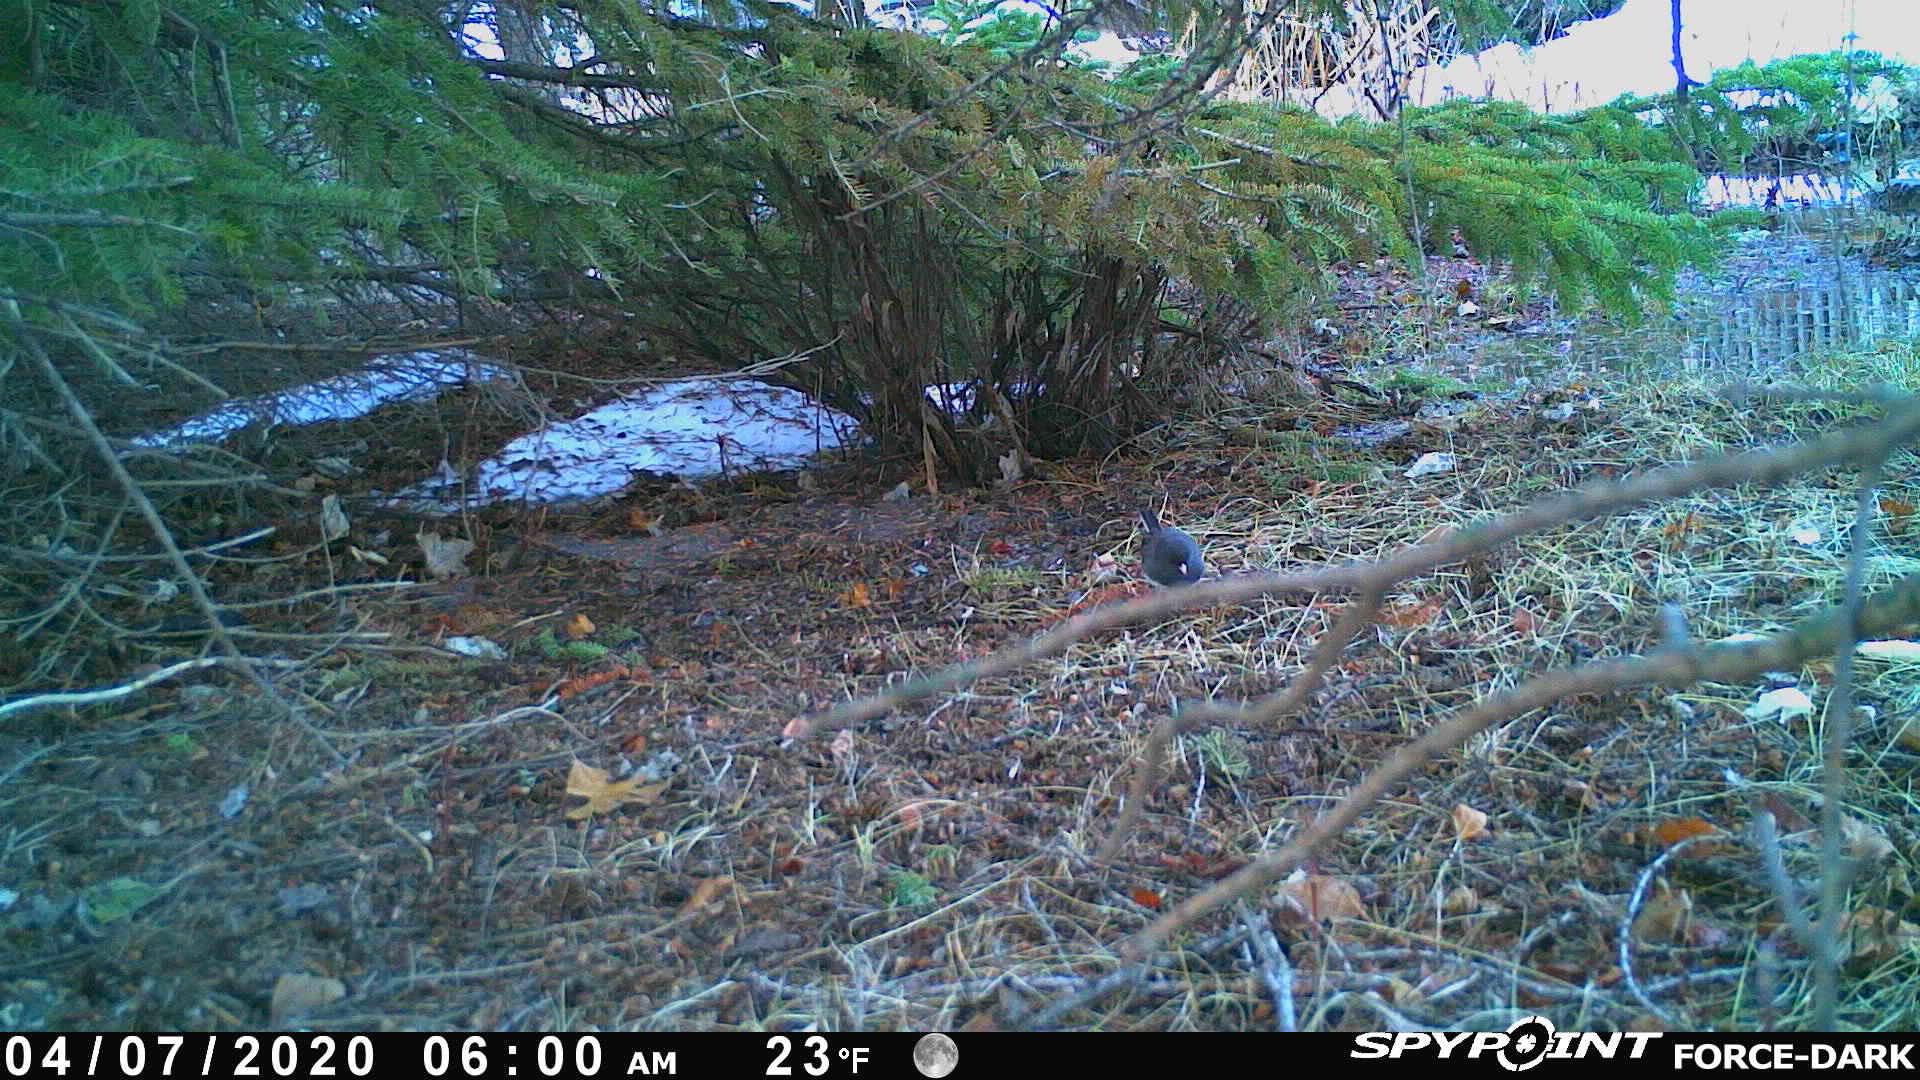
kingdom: Animalia
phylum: Chordata
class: Aves
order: Passeriformes
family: Passerellidae
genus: Junco
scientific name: Junco hyemalis
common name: Dark-eyed junco
